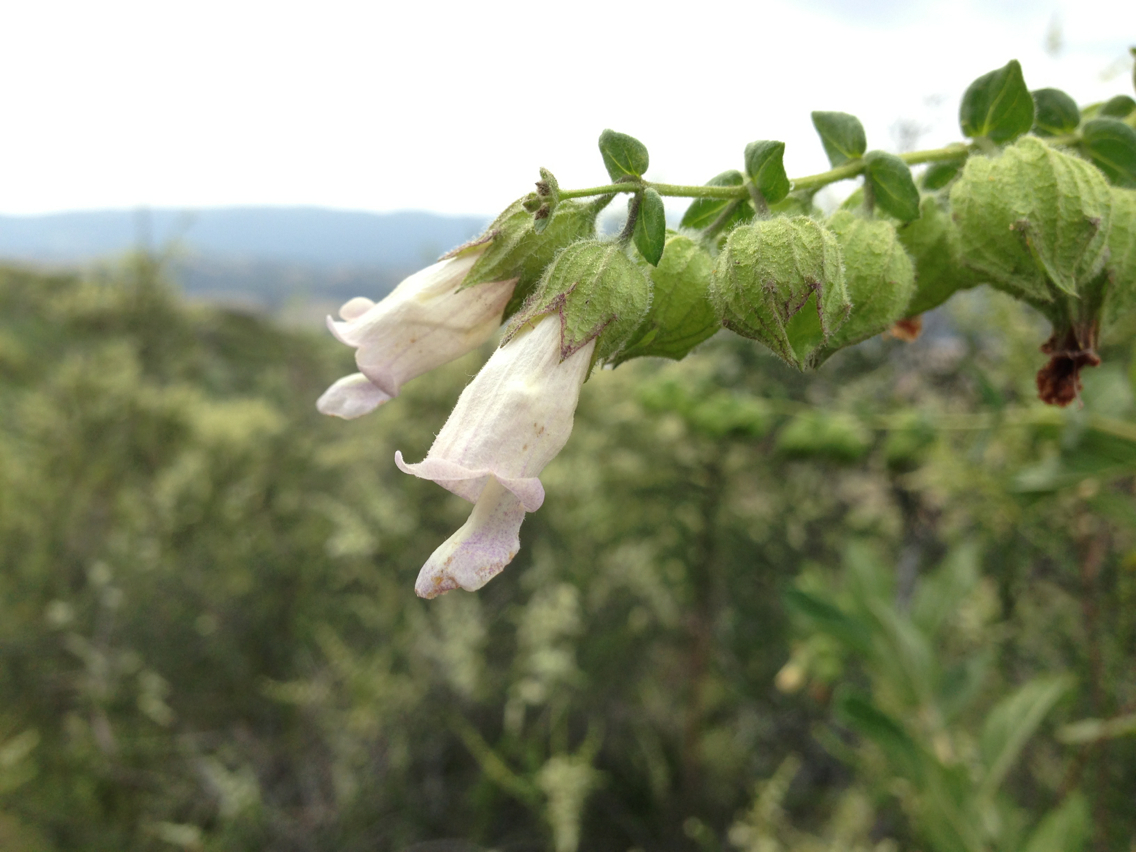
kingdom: Plantae
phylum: Tracheophyta
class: Magnoliopsida
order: Lamiales
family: Lamiaceae
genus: Lepechinia
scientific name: Lepechinia calycina
